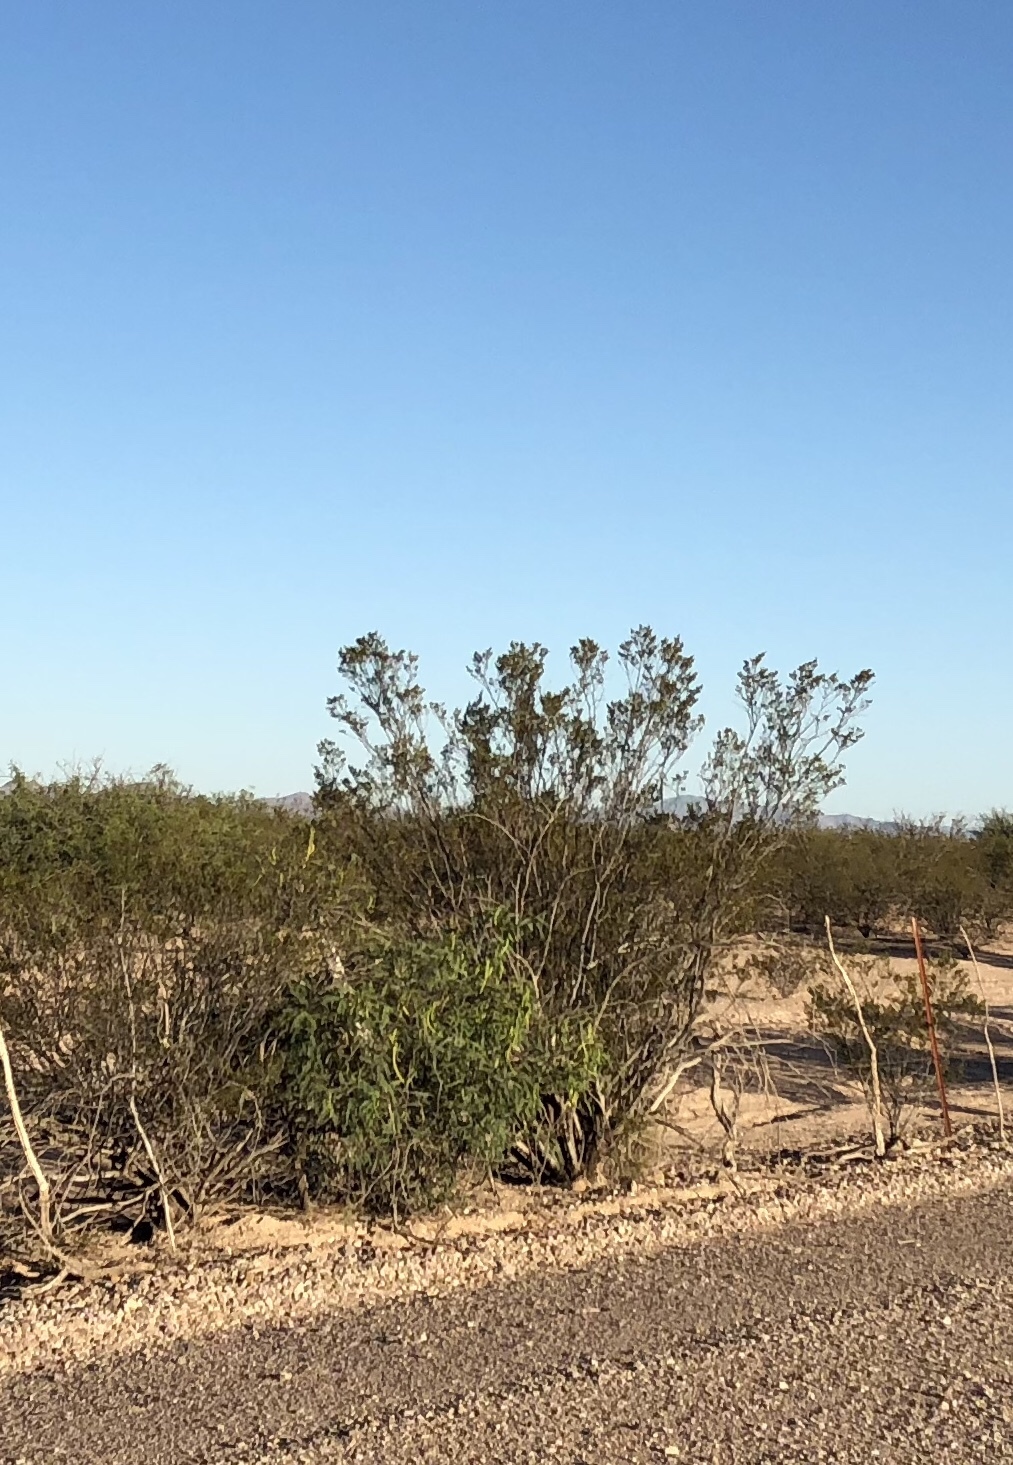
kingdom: Plantae
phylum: Tracheophyta
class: Magnoliopsida
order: Zygophyllales
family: Zygophyllaceae
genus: Larrea
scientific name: Larrea tridentata
